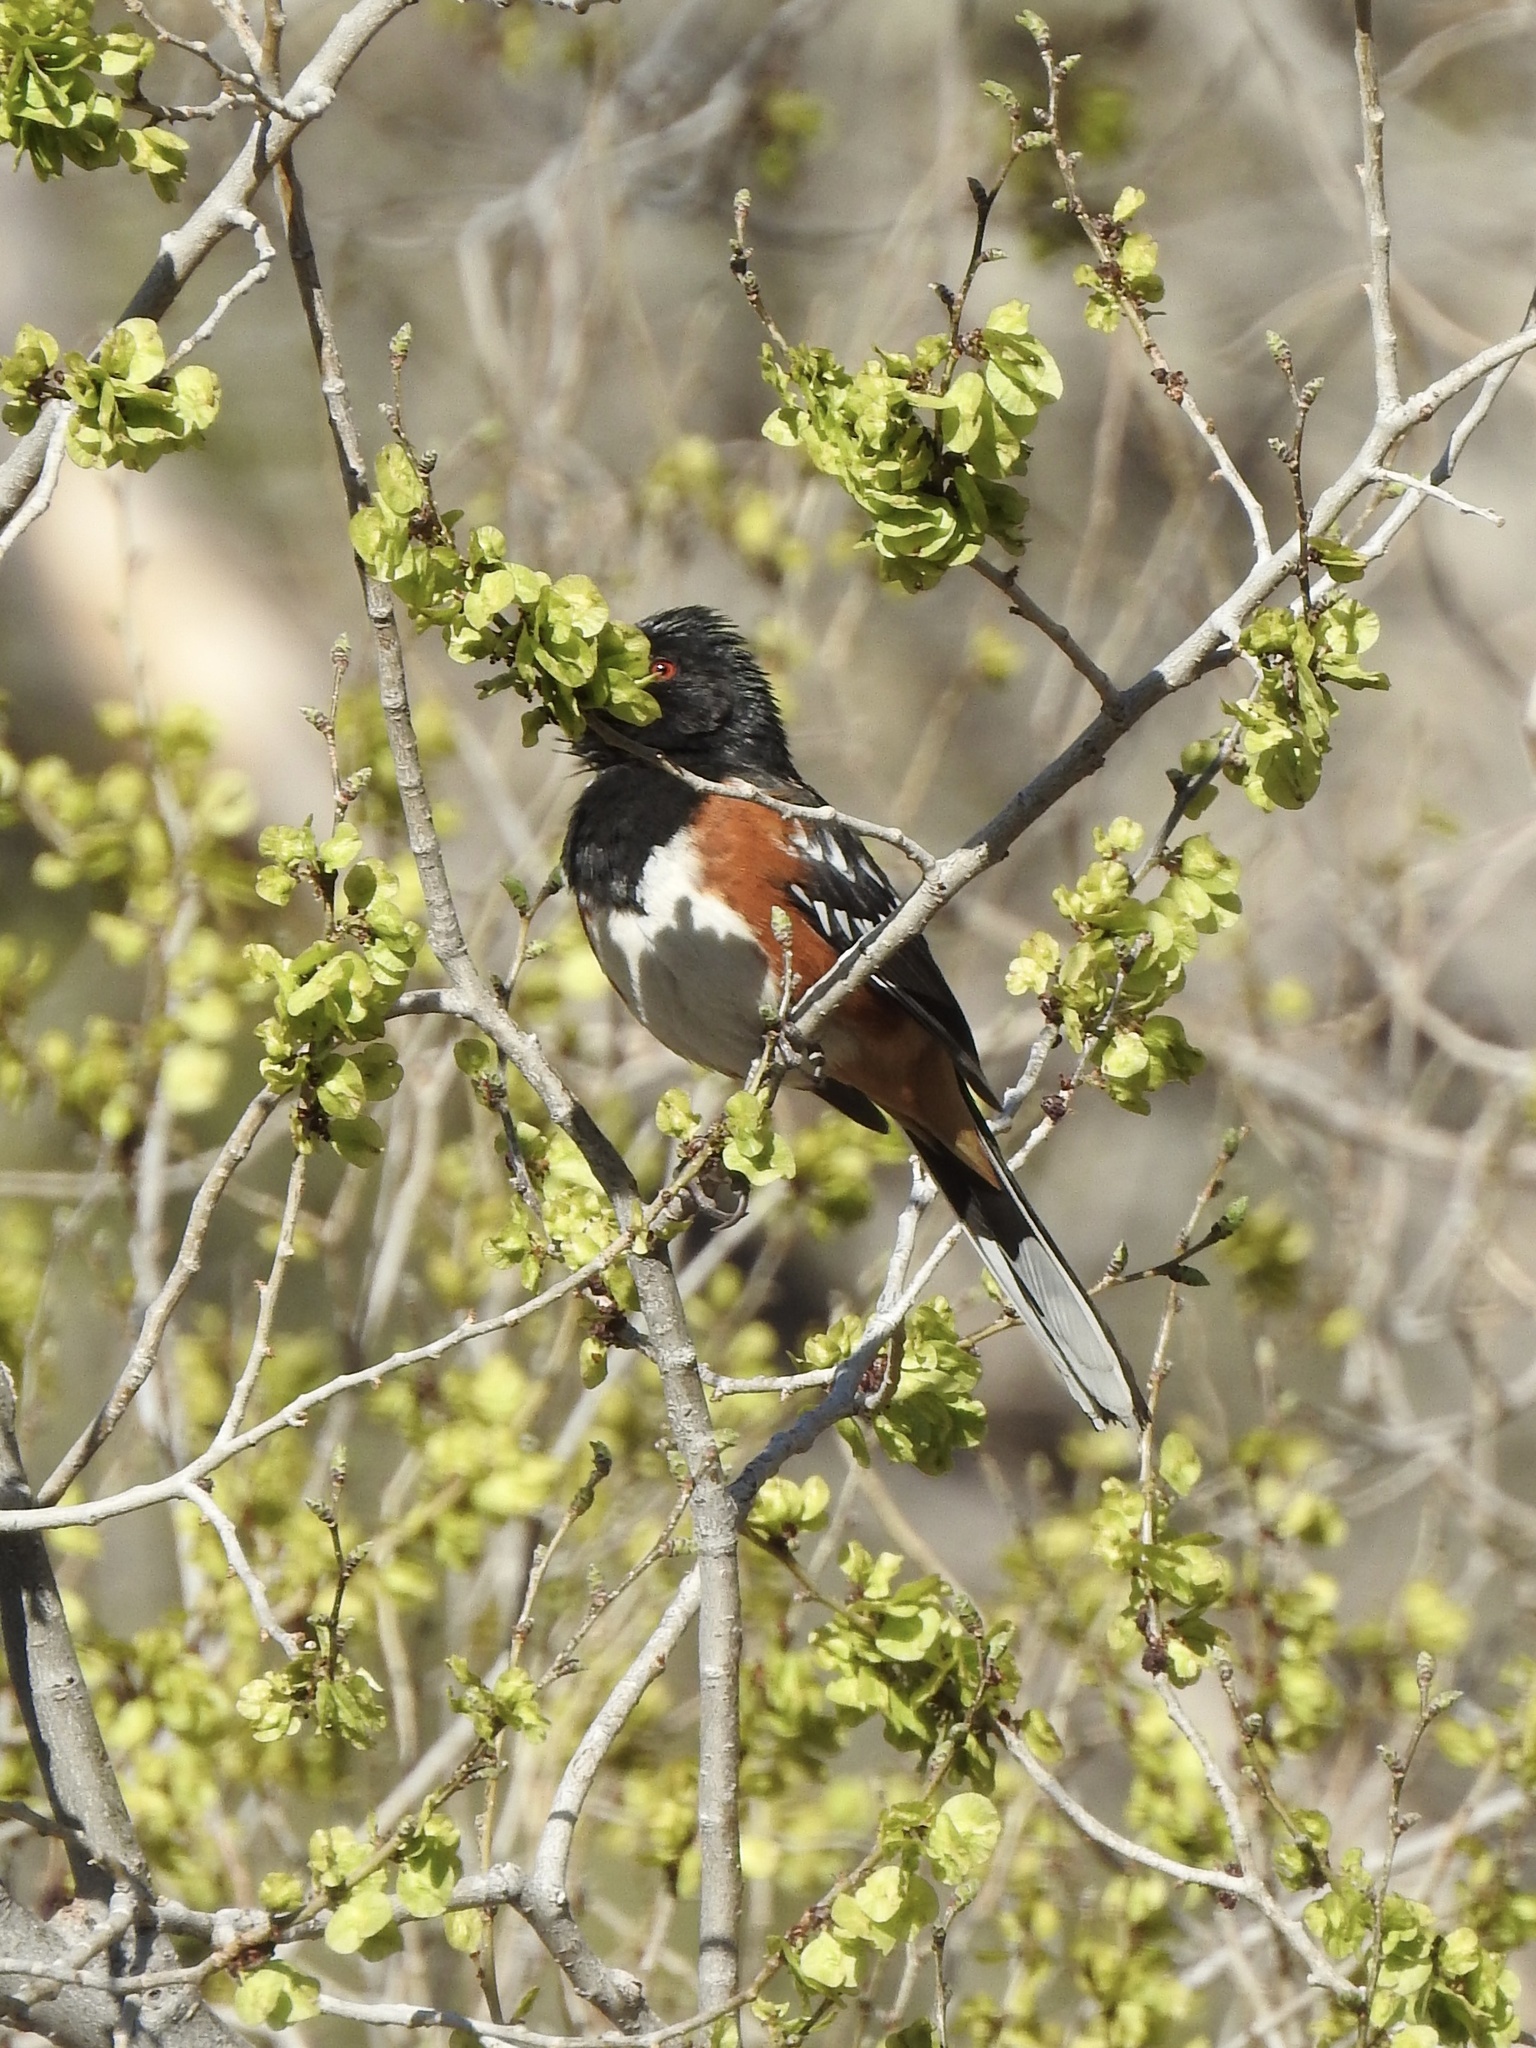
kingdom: Animalia
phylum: Chordata
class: Aves
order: Passeriformes
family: Passerellidae
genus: Pipilo
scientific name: Pipilo maculatus
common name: Spotted towhee
